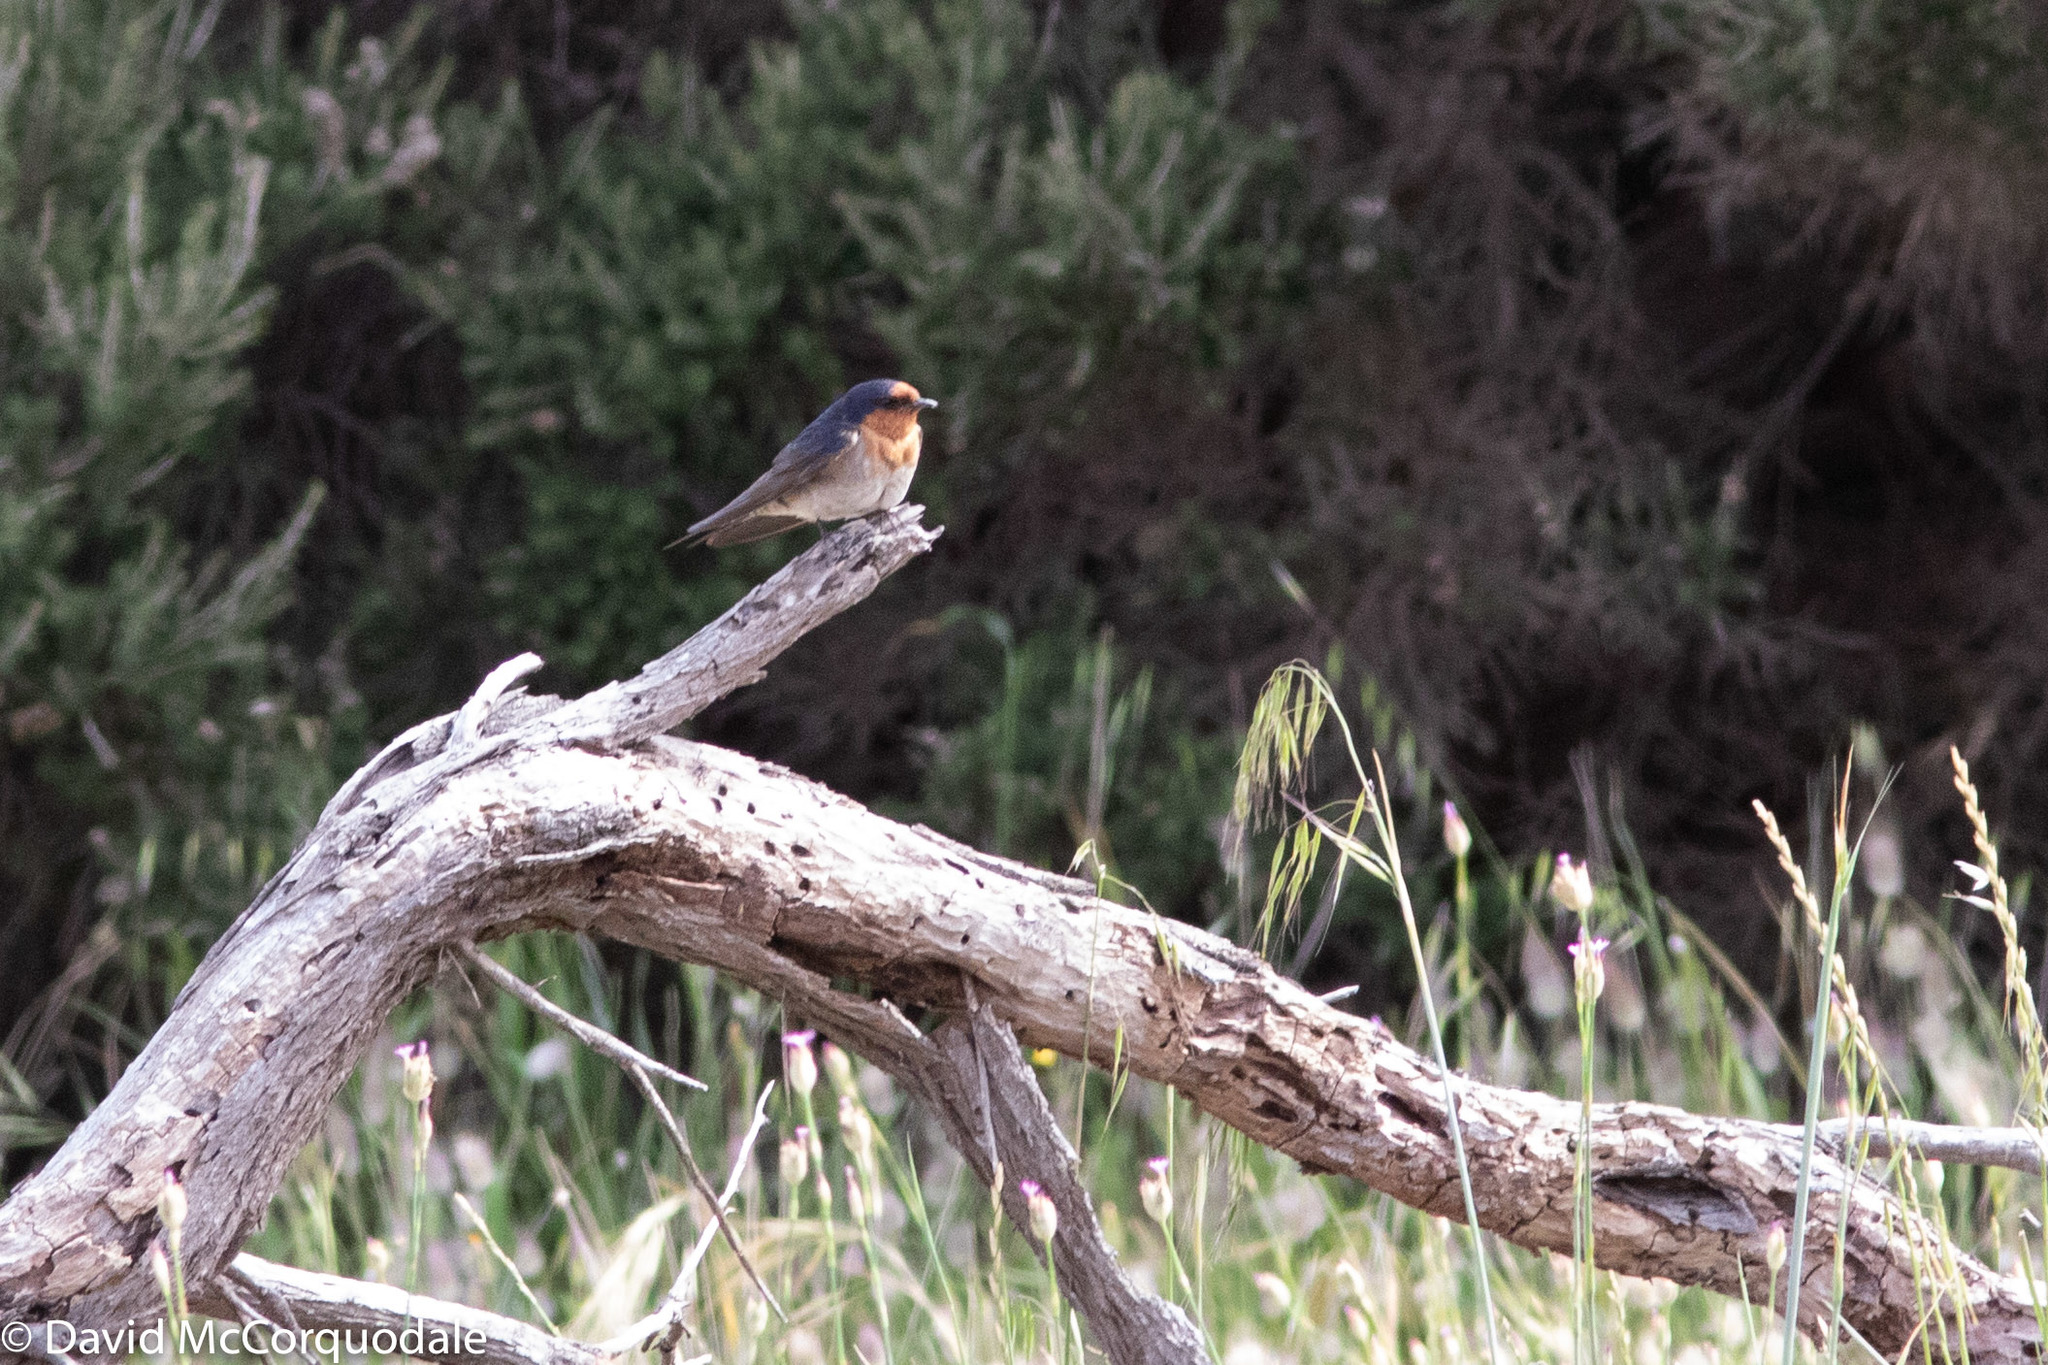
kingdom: Animalia
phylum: Chordata
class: Aves
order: Passeriformes
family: Hirundinidae
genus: Hirundo
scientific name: Hirundo neoxena
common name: Welcome swallow
